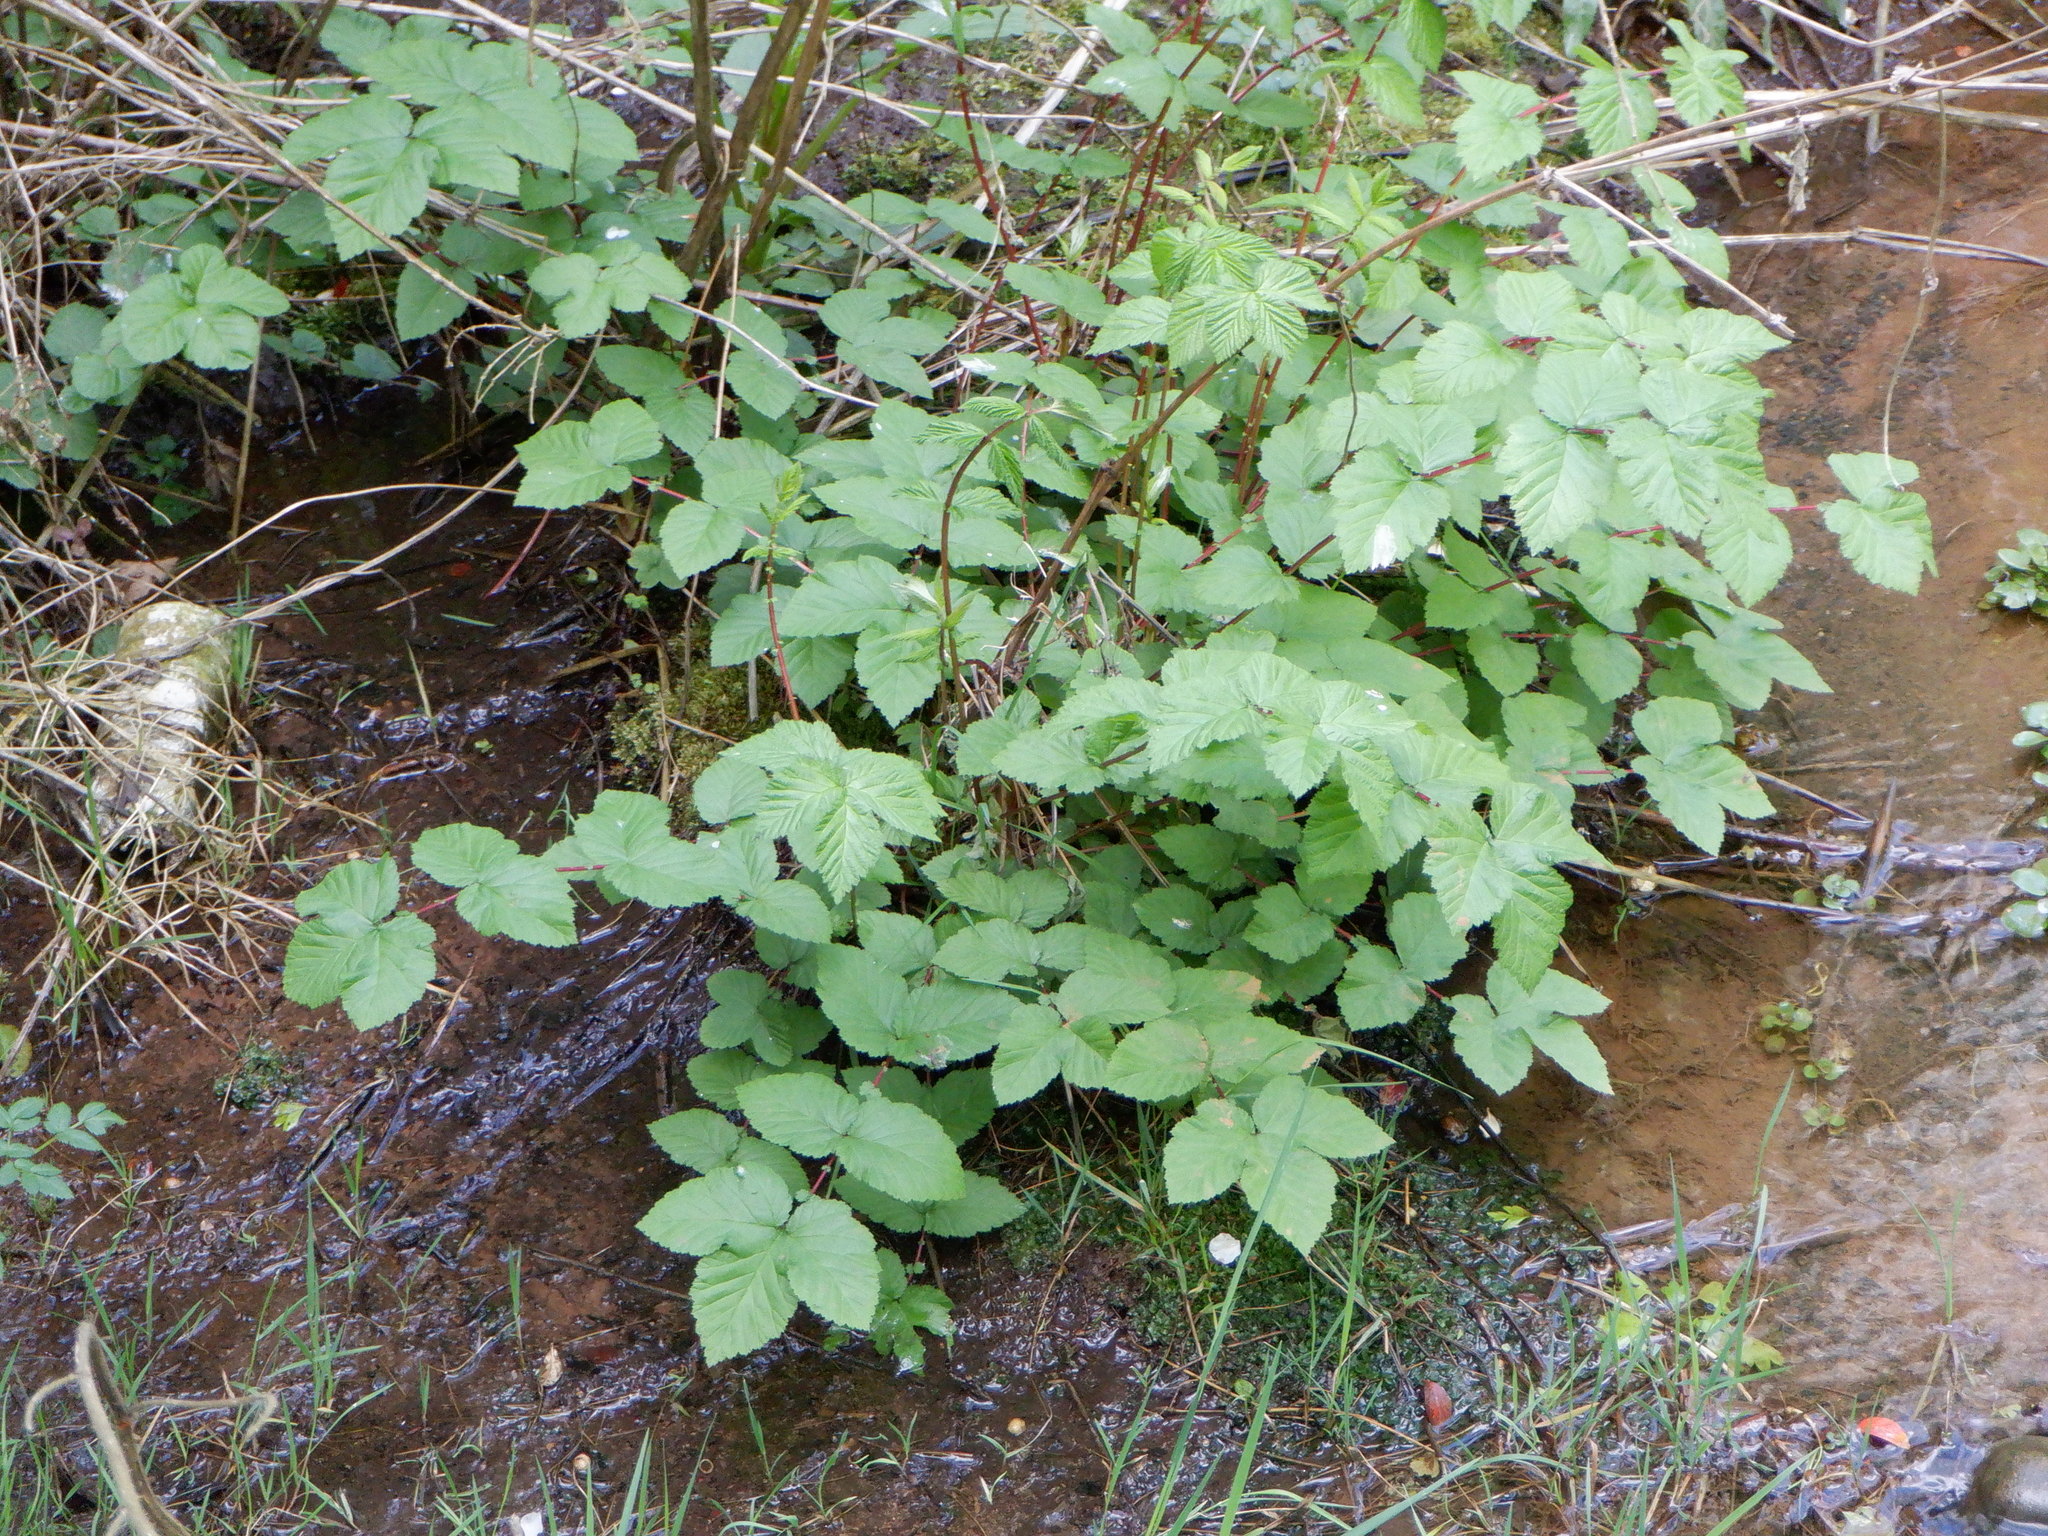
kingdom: Plantae
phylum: Tracheophyta
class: Magnoliopsida
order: Rosales
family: Rosaceae
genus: Filipendula
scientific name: Filipendula ulmaria
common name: Meadowsweet
